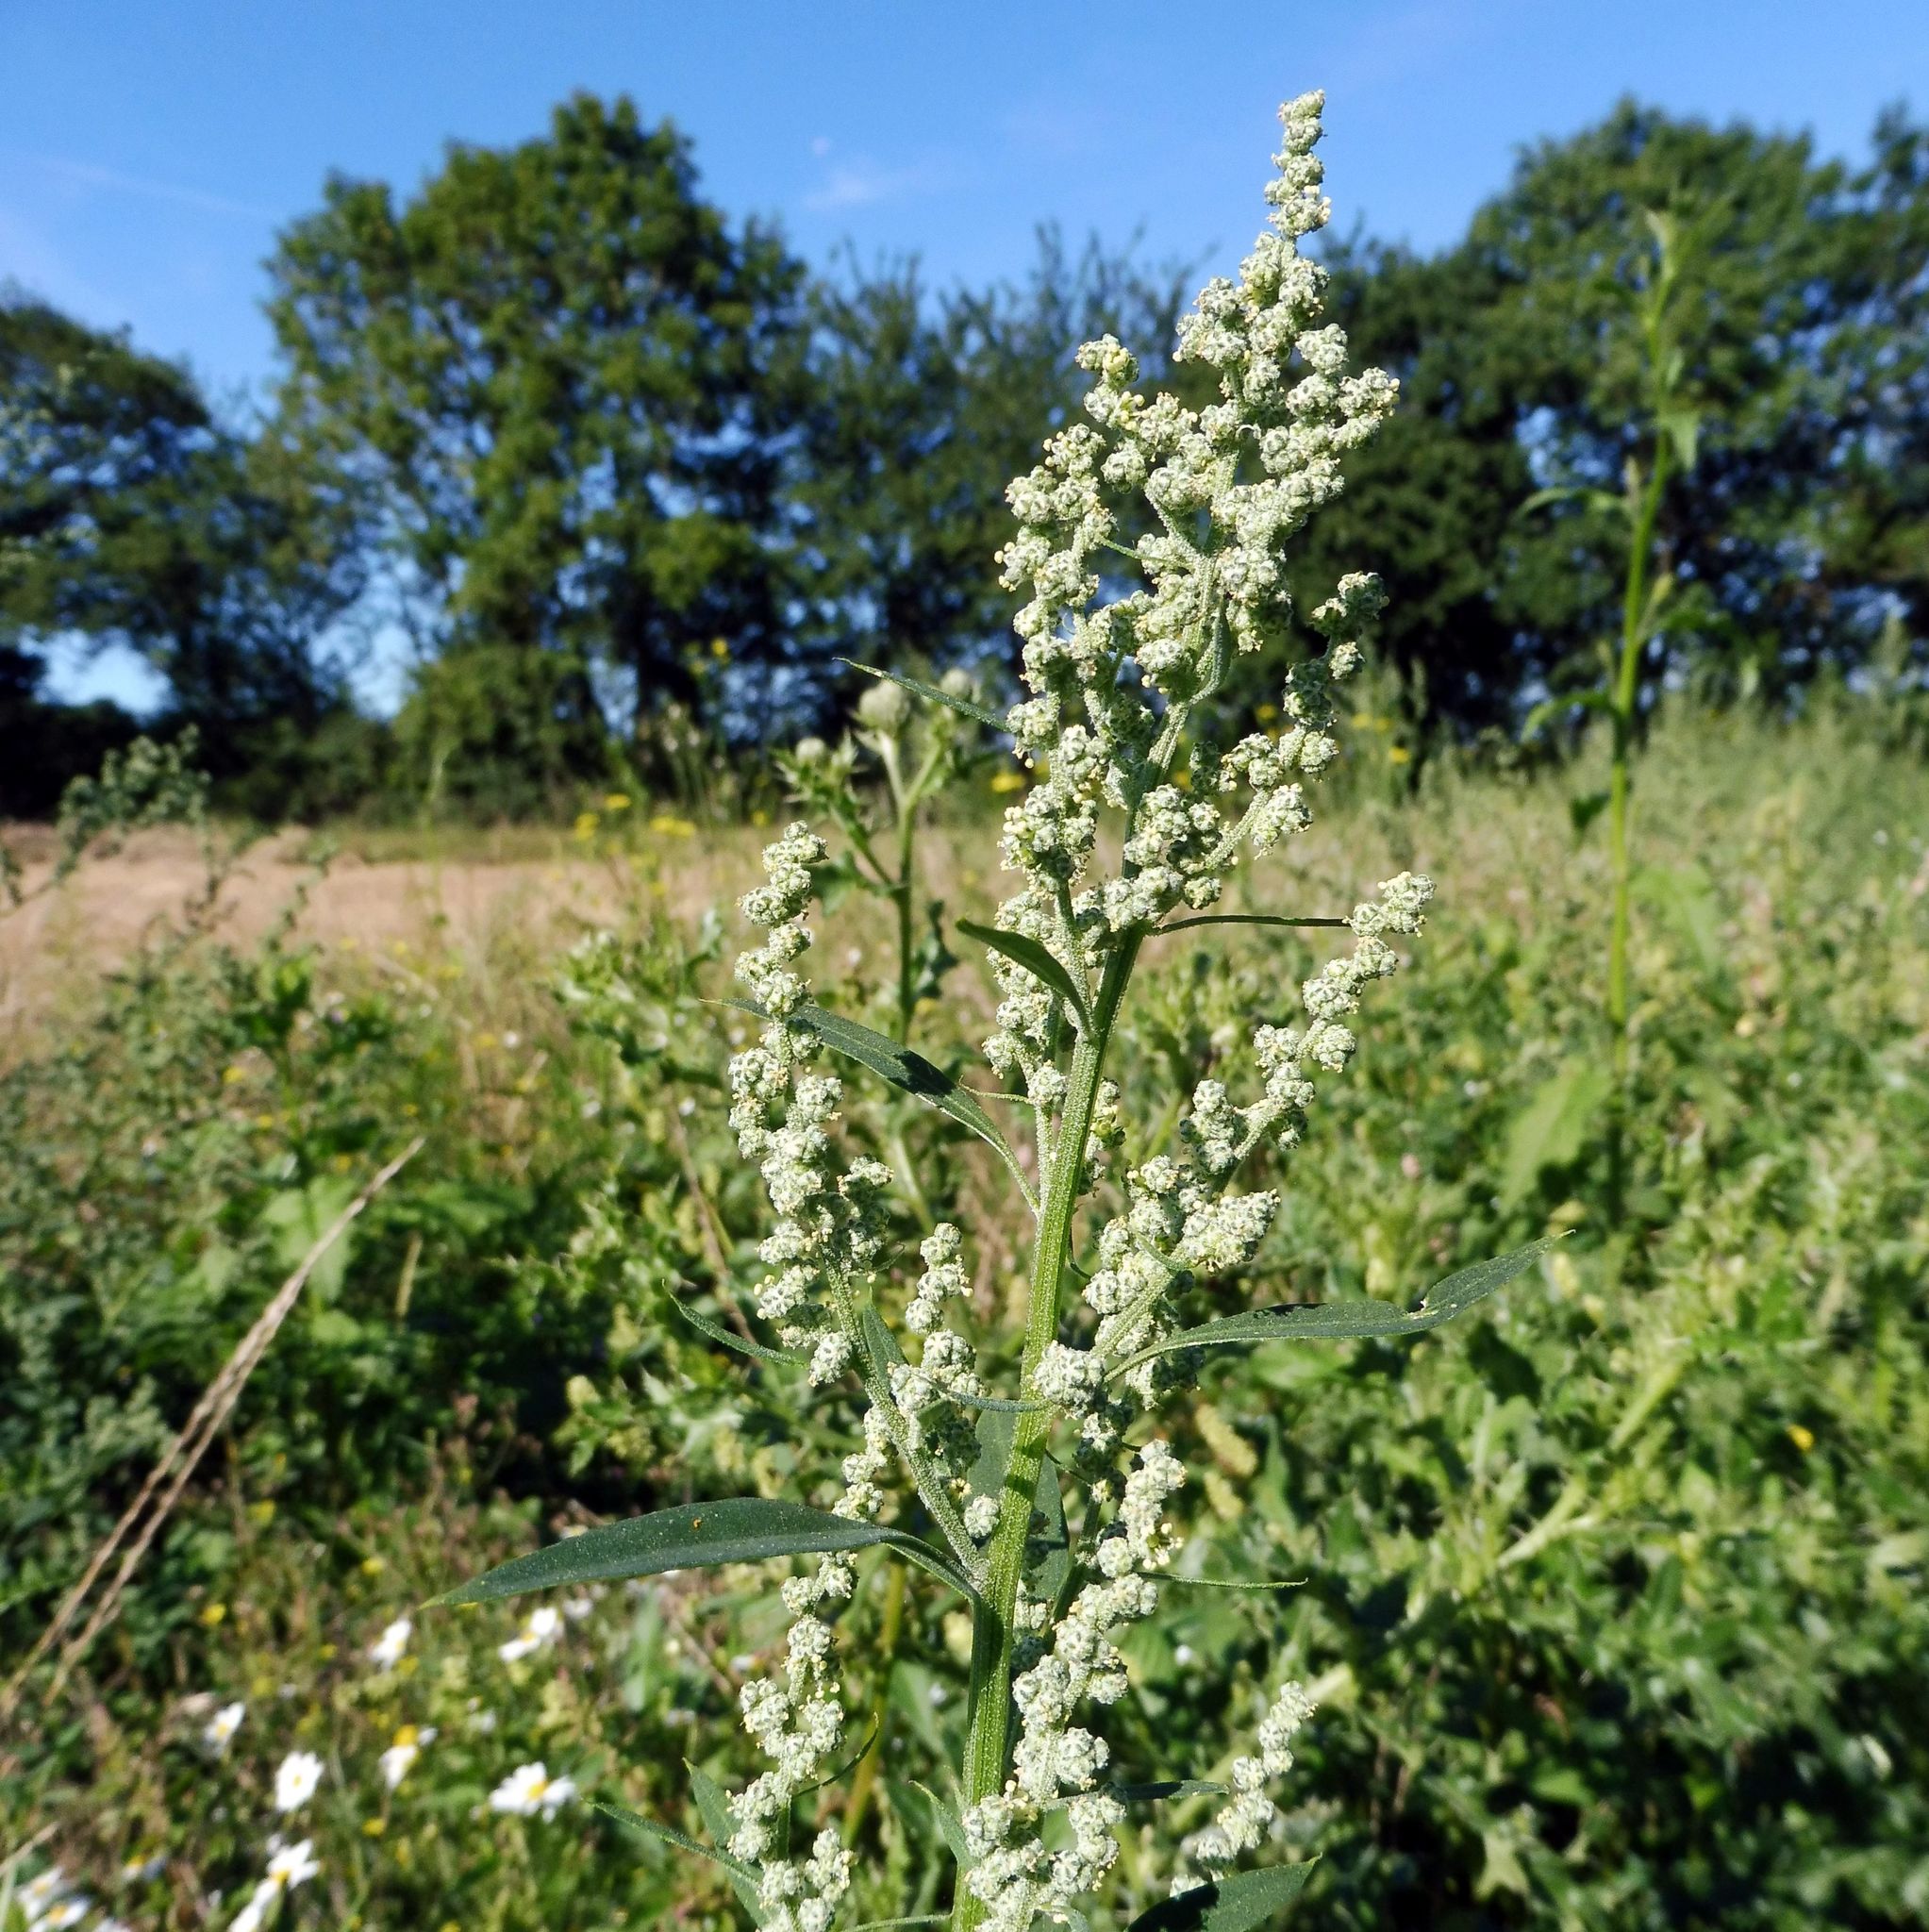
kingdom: Plantae
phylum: Tracheophyta
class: Magnoliopsida
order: Caryophyllales
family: Amaranthaceae
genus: Chenopodium
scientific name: Chenopodium album
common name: Fat-hen
